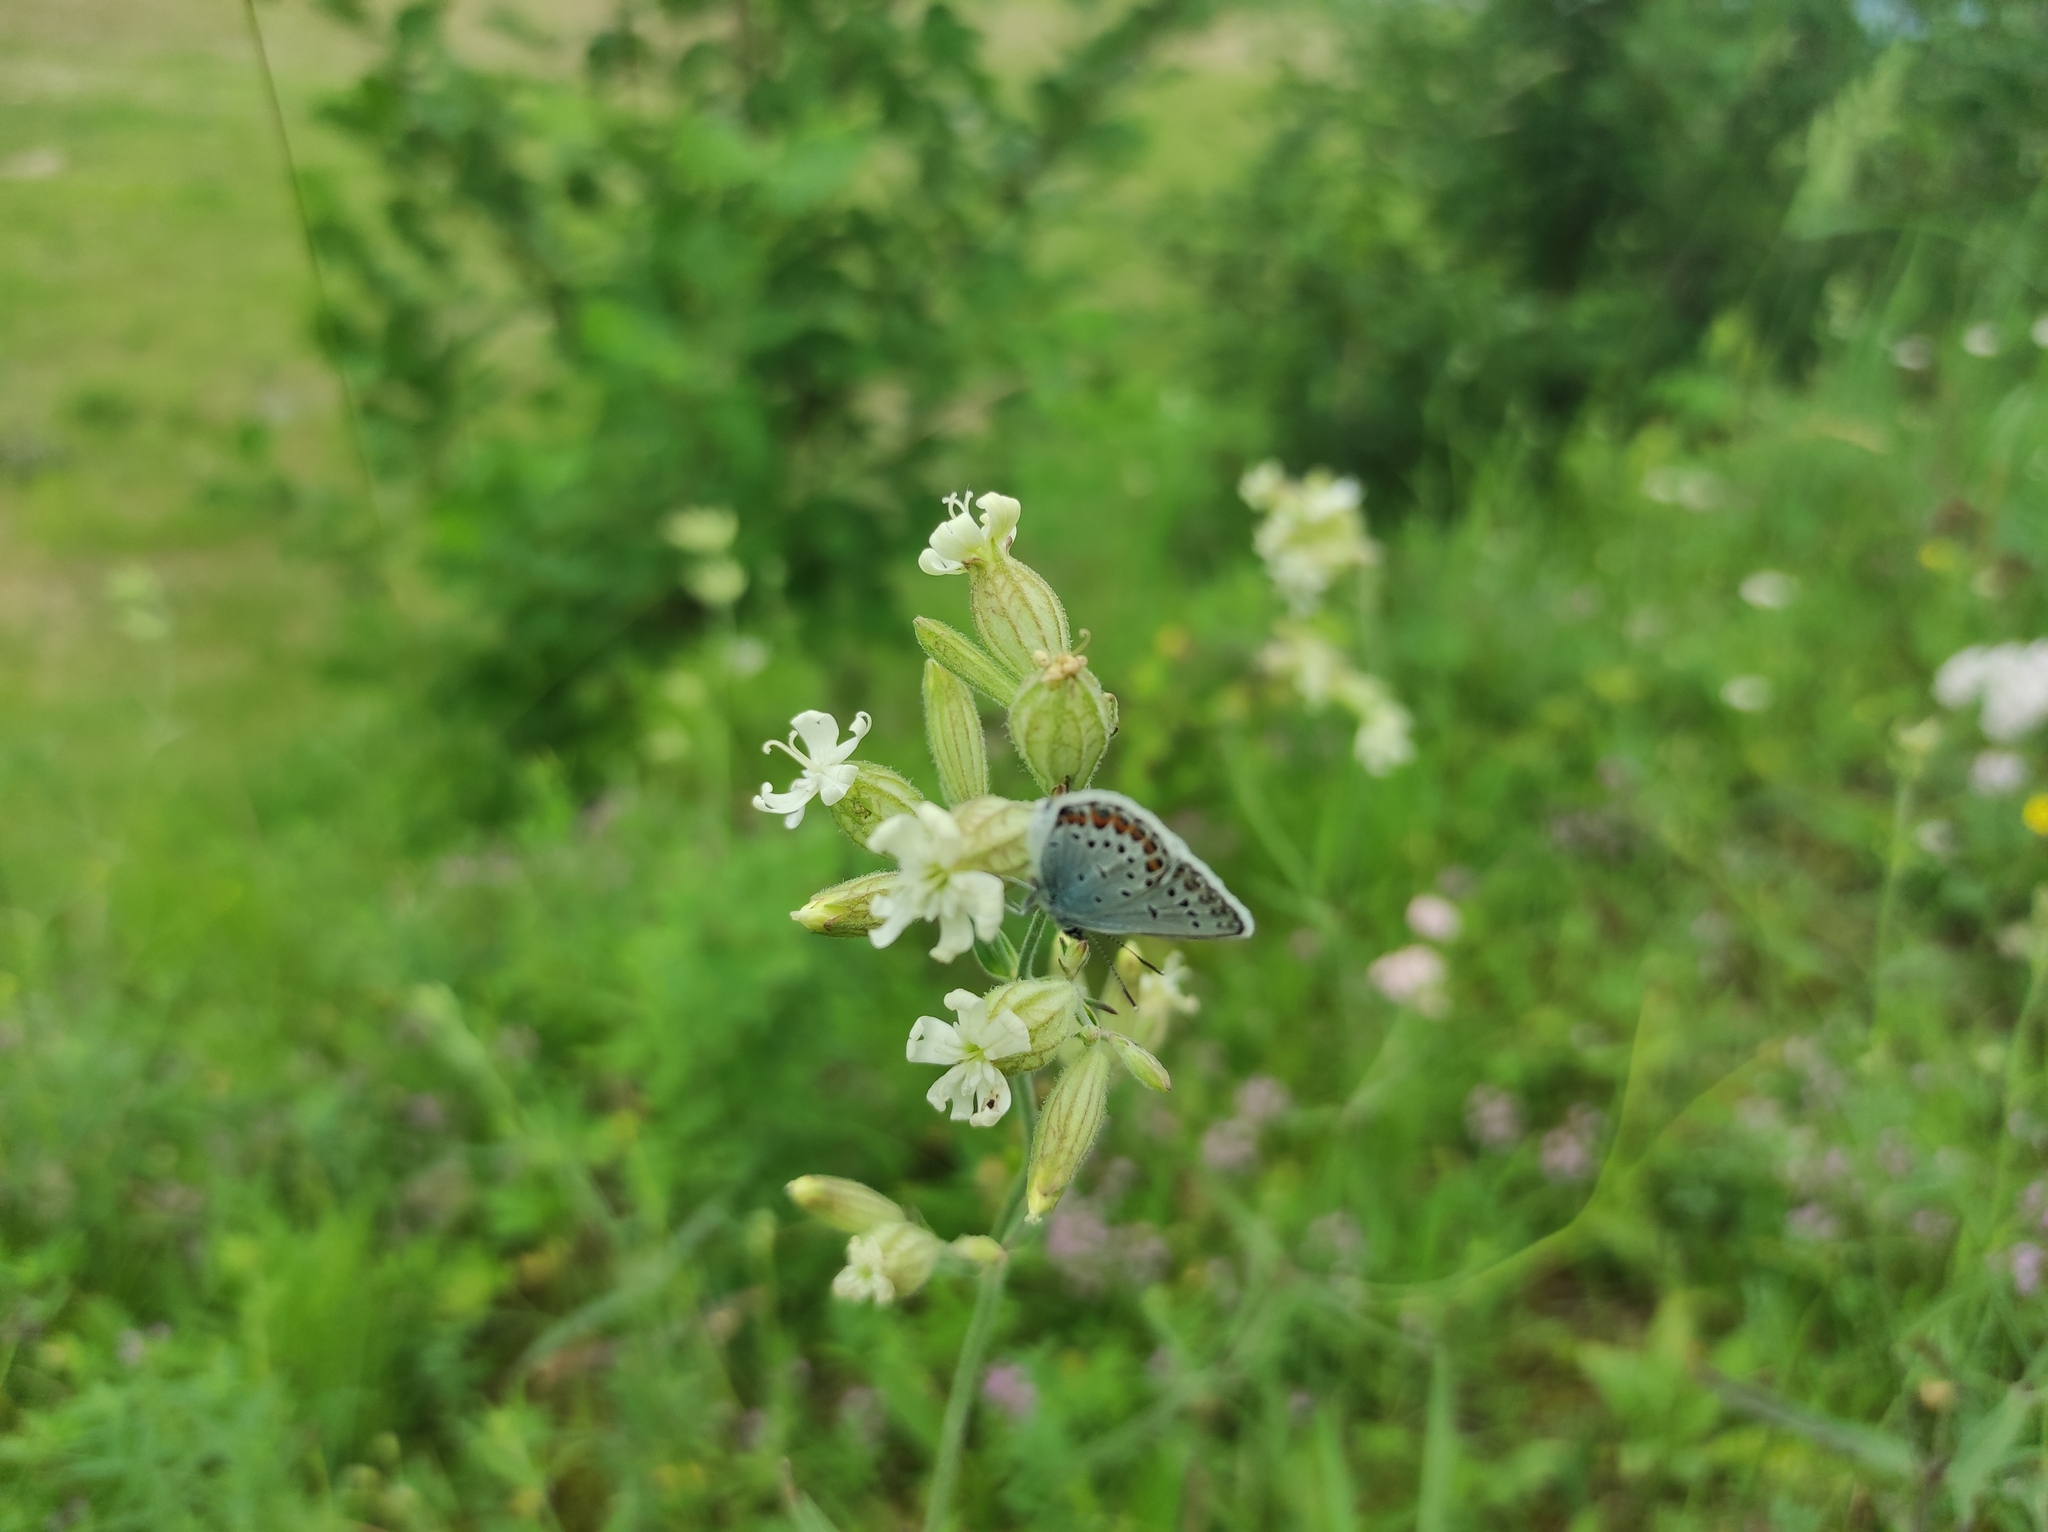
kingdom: Plantae
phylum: Tracheophyta
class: Magnoliopsida
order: Caryophyllales
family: Caryophyllaceae
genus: Silene
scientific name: Silene amoena
